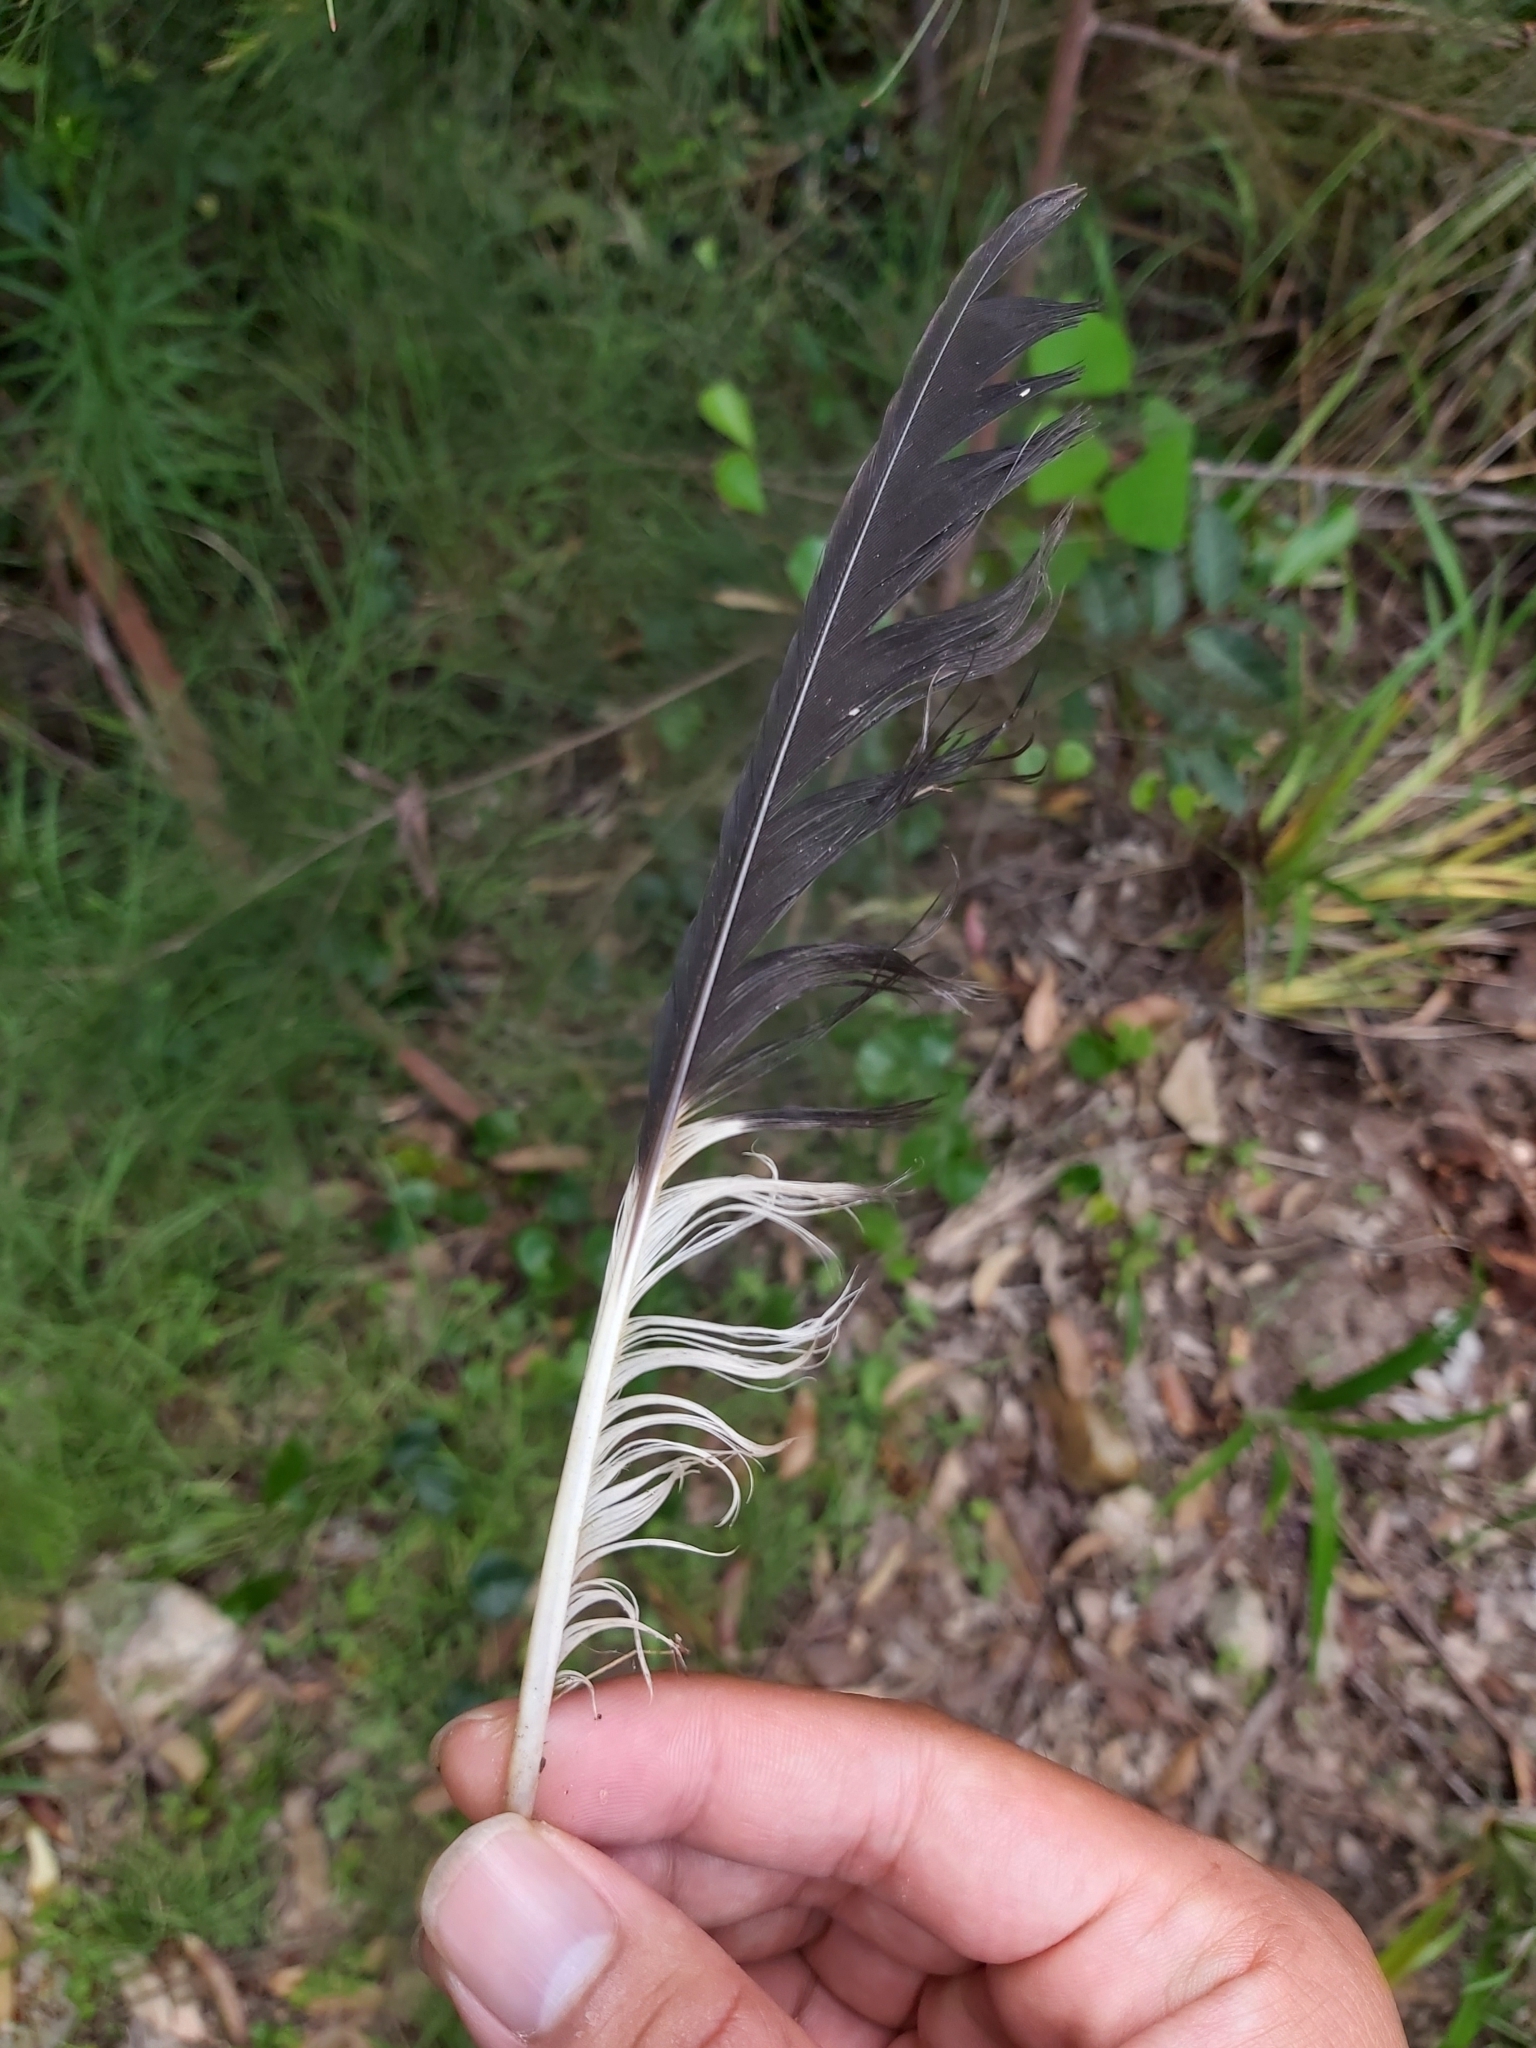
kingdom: Animalia
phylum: Chordata
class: Aves
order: Passeriformes
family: Cracticidae
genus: Strepera
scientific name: Strepera graculina
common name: Pied currawong
